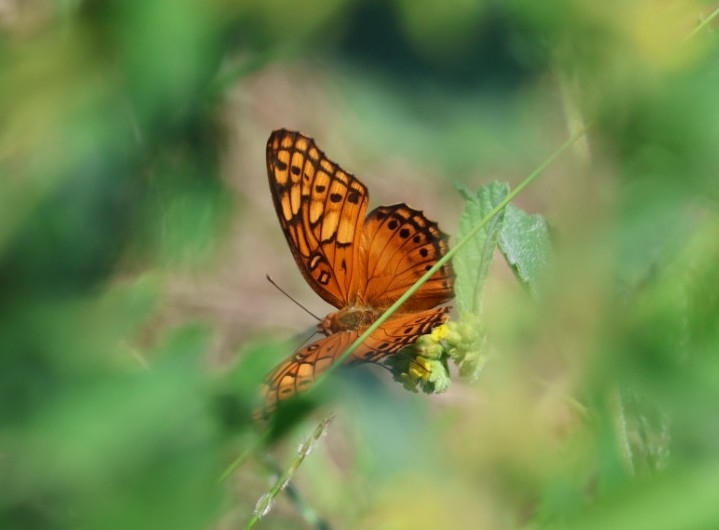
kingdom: Animalia
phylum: Arthropoda
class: Insecta
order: Lepidoptera
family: Nymphalidae
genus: Euptoieta
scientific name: Euptoieta hegesia
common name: Mexican fritillary
